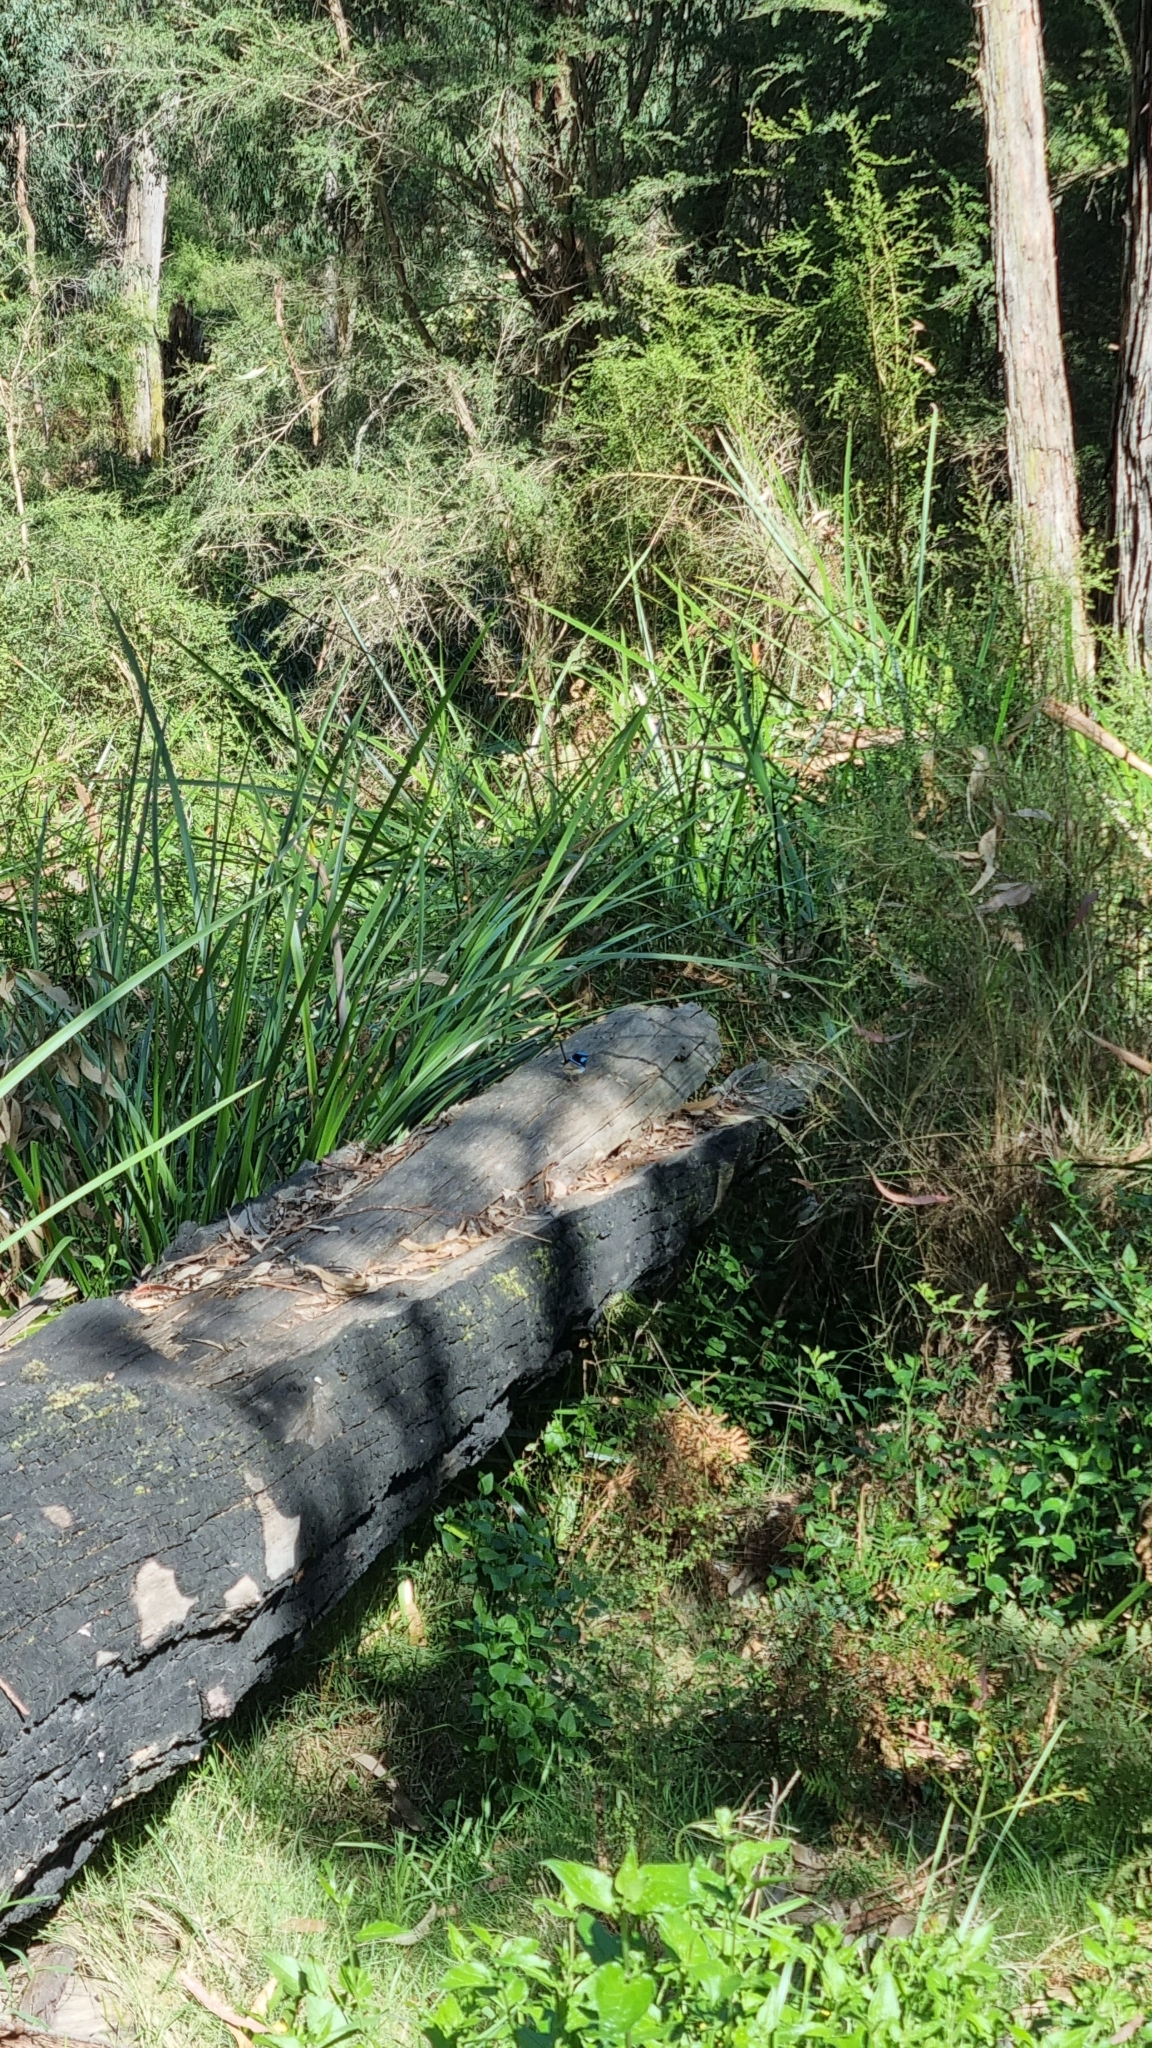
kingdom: Animalia
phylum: Chordata
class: Aves
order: Passeriformes
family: Maluridae
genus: Malurus
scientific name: Malurus cyaneus
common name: Superb fairywren
